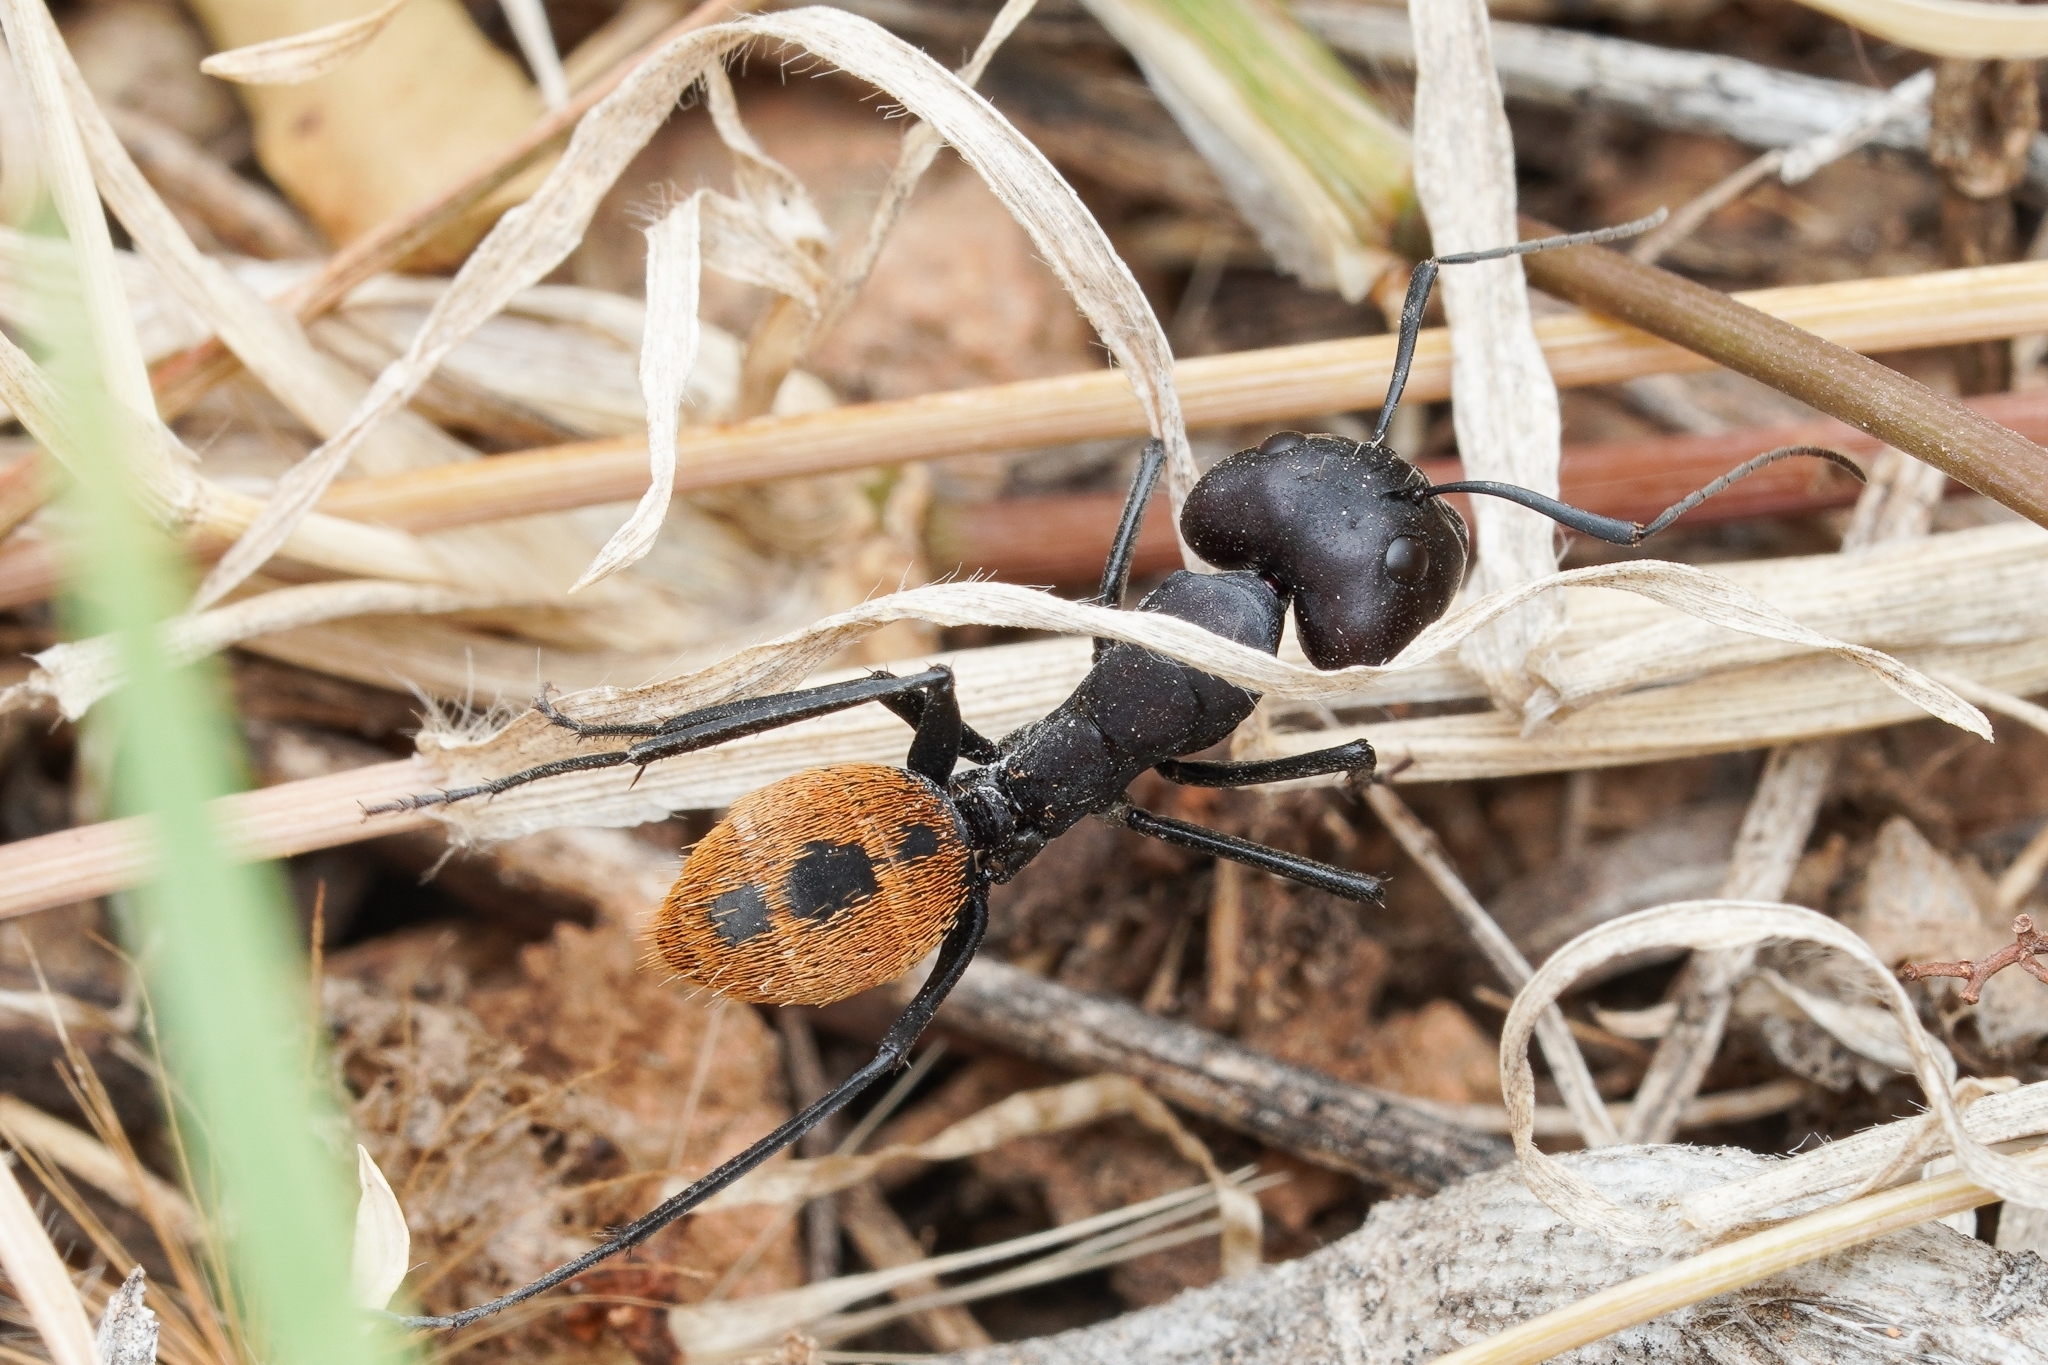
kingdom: Animalia
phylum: Arthropoda
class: Insecta
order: Hymenoptera
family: Formicidae
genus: Camponotus
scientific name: Camponotus fulvopilosus
